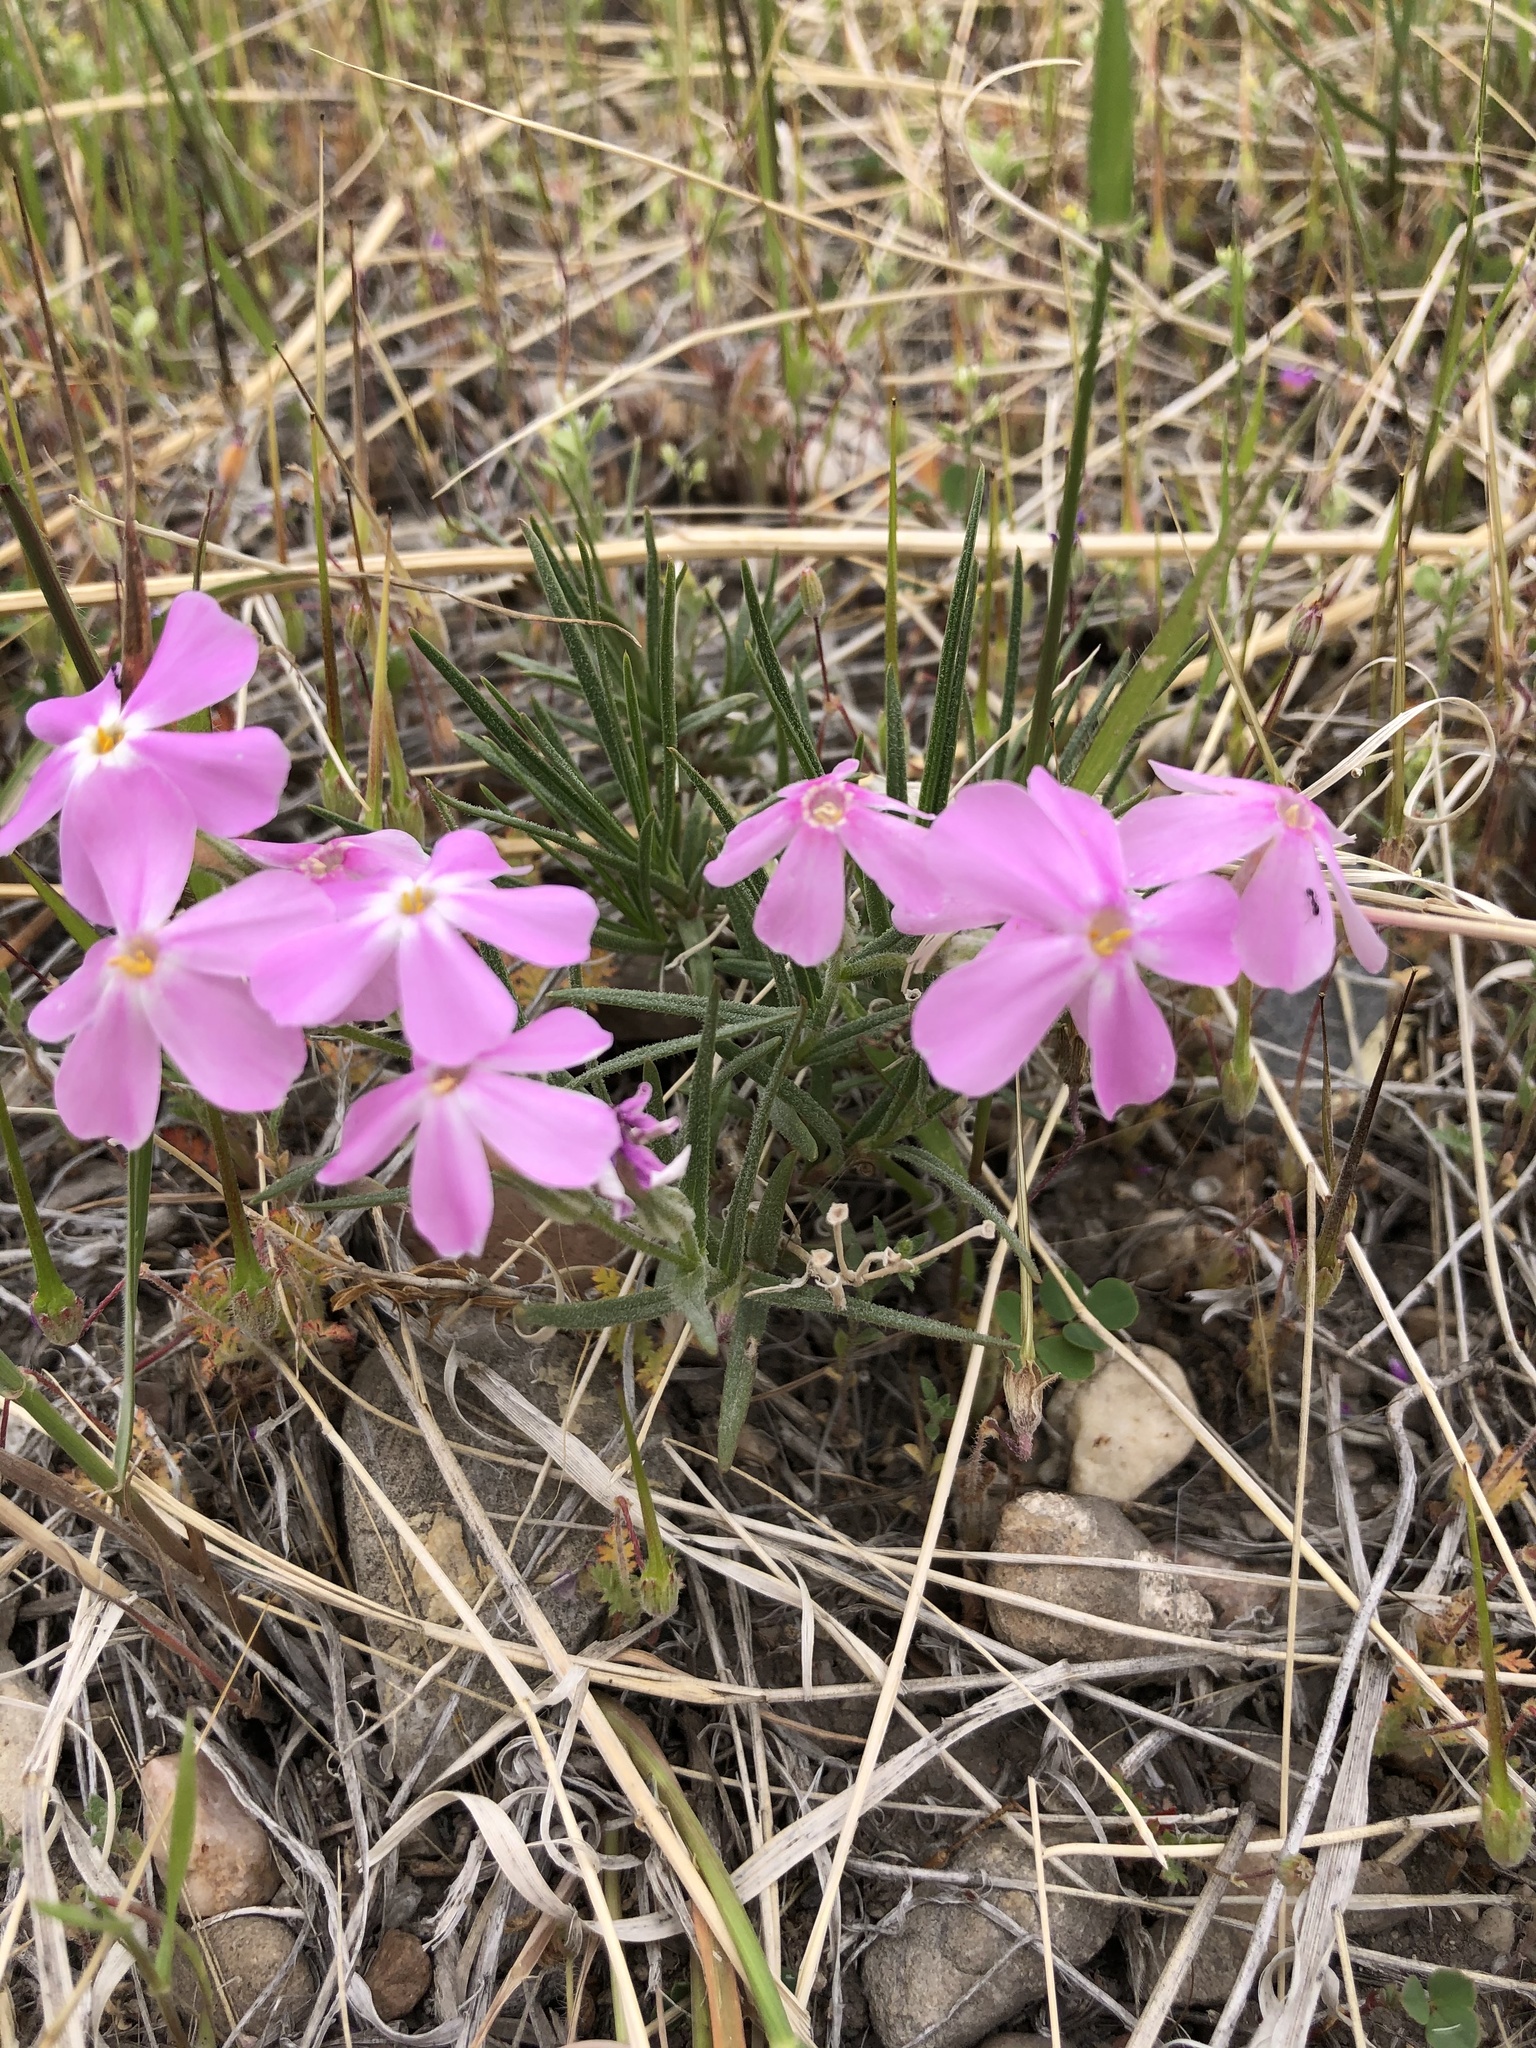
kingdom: Plantae
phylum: Tracheophyta
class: Magnoliopsida
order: Ericales
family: Polemoniaceae
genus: Phlox
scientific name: Phlox longifolia
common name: Longleaf phlox
